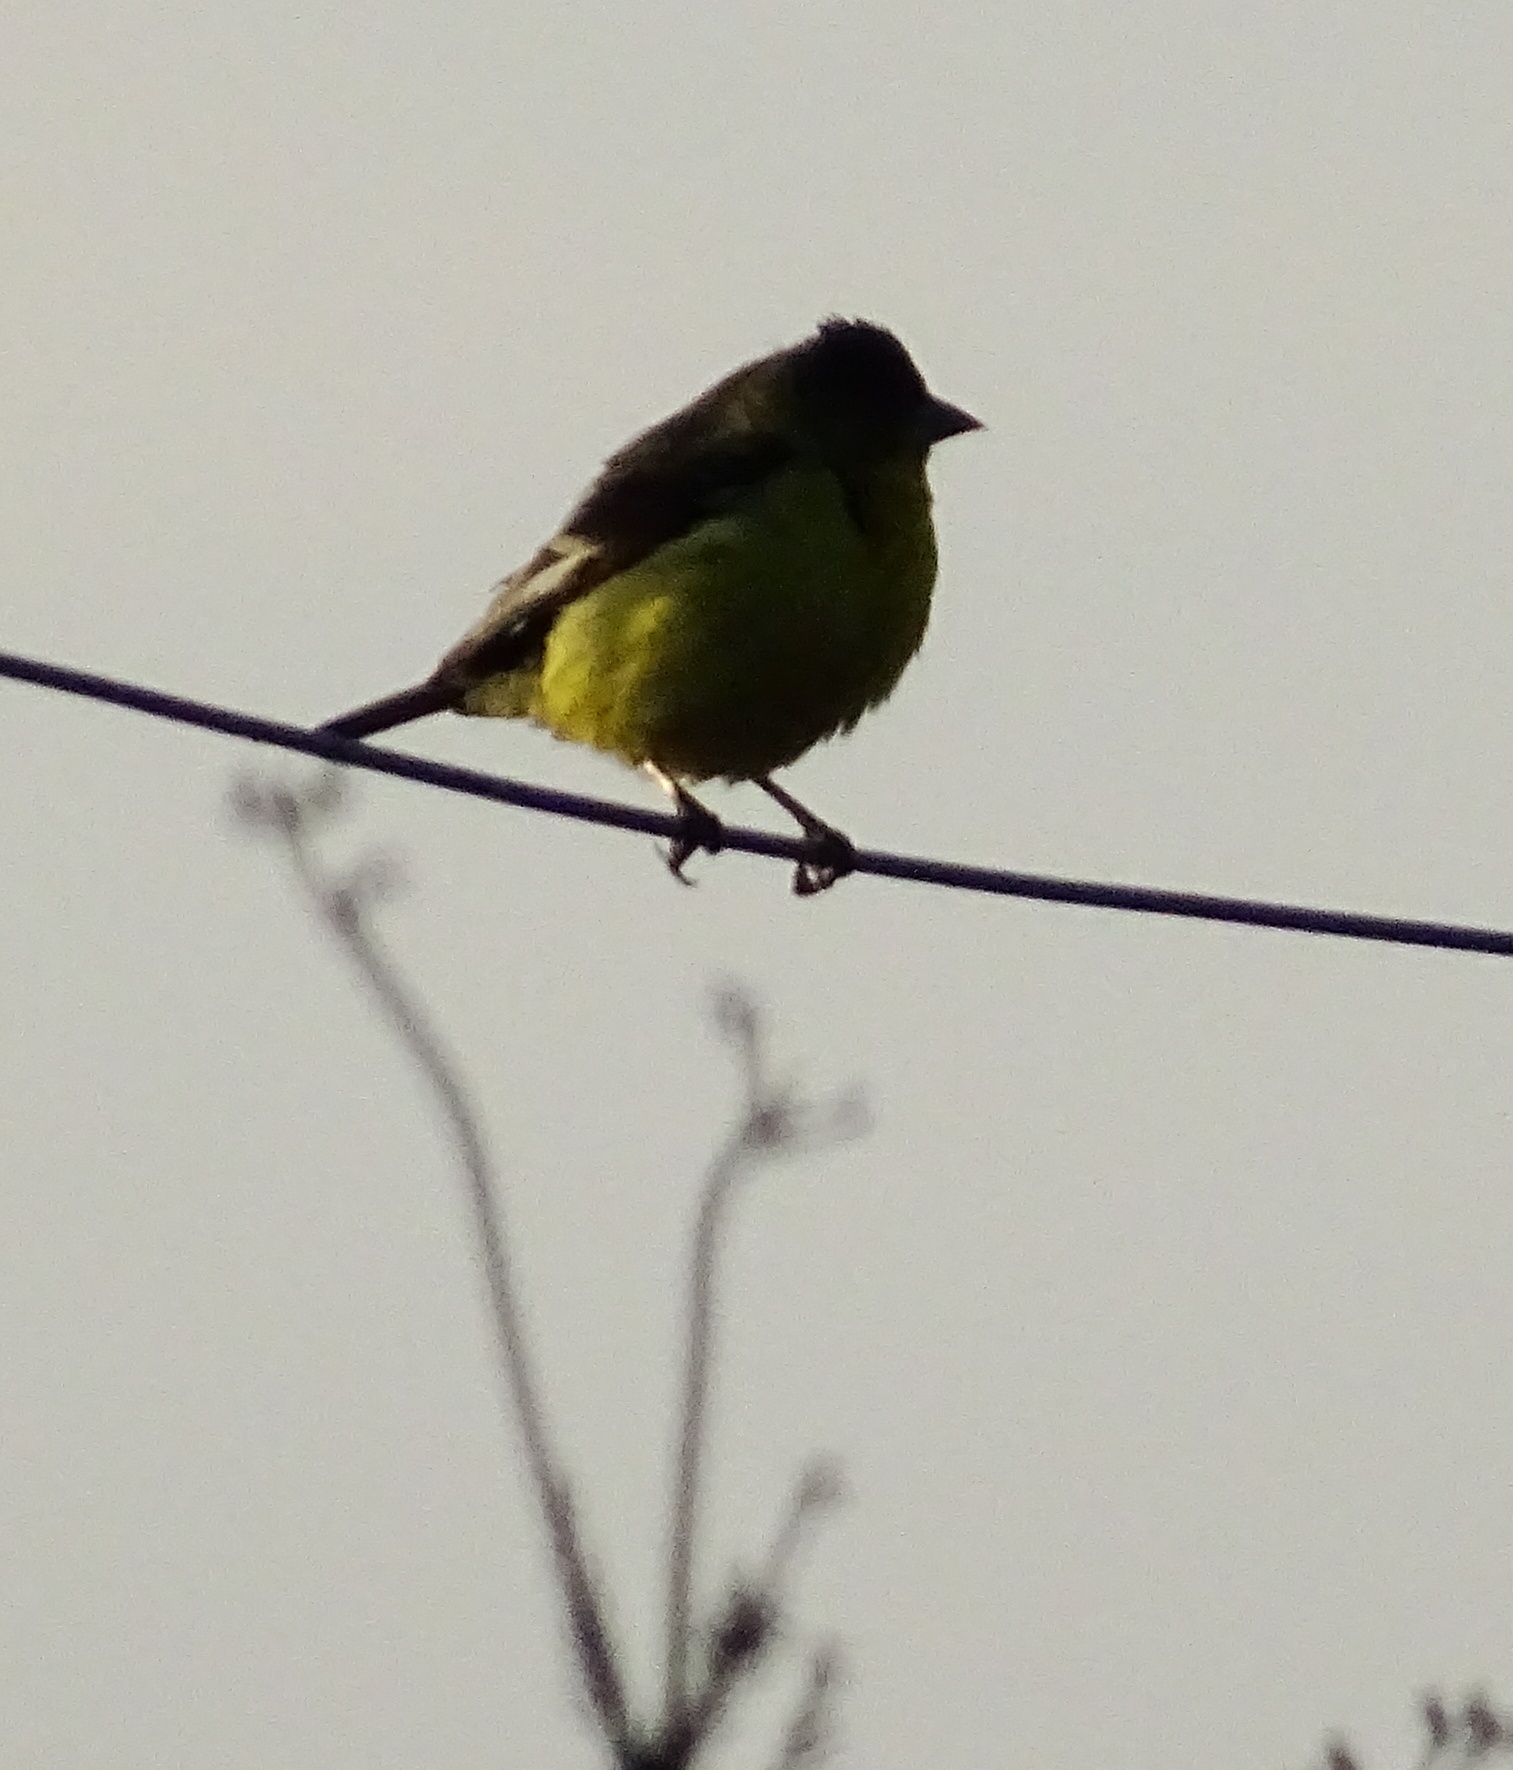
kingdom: Animalia
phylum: Chordata
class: Aves
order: Passeriformes
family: Fringillidae
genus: Spinus
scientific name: Spinus psaltria
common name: Lesser goldfinch
